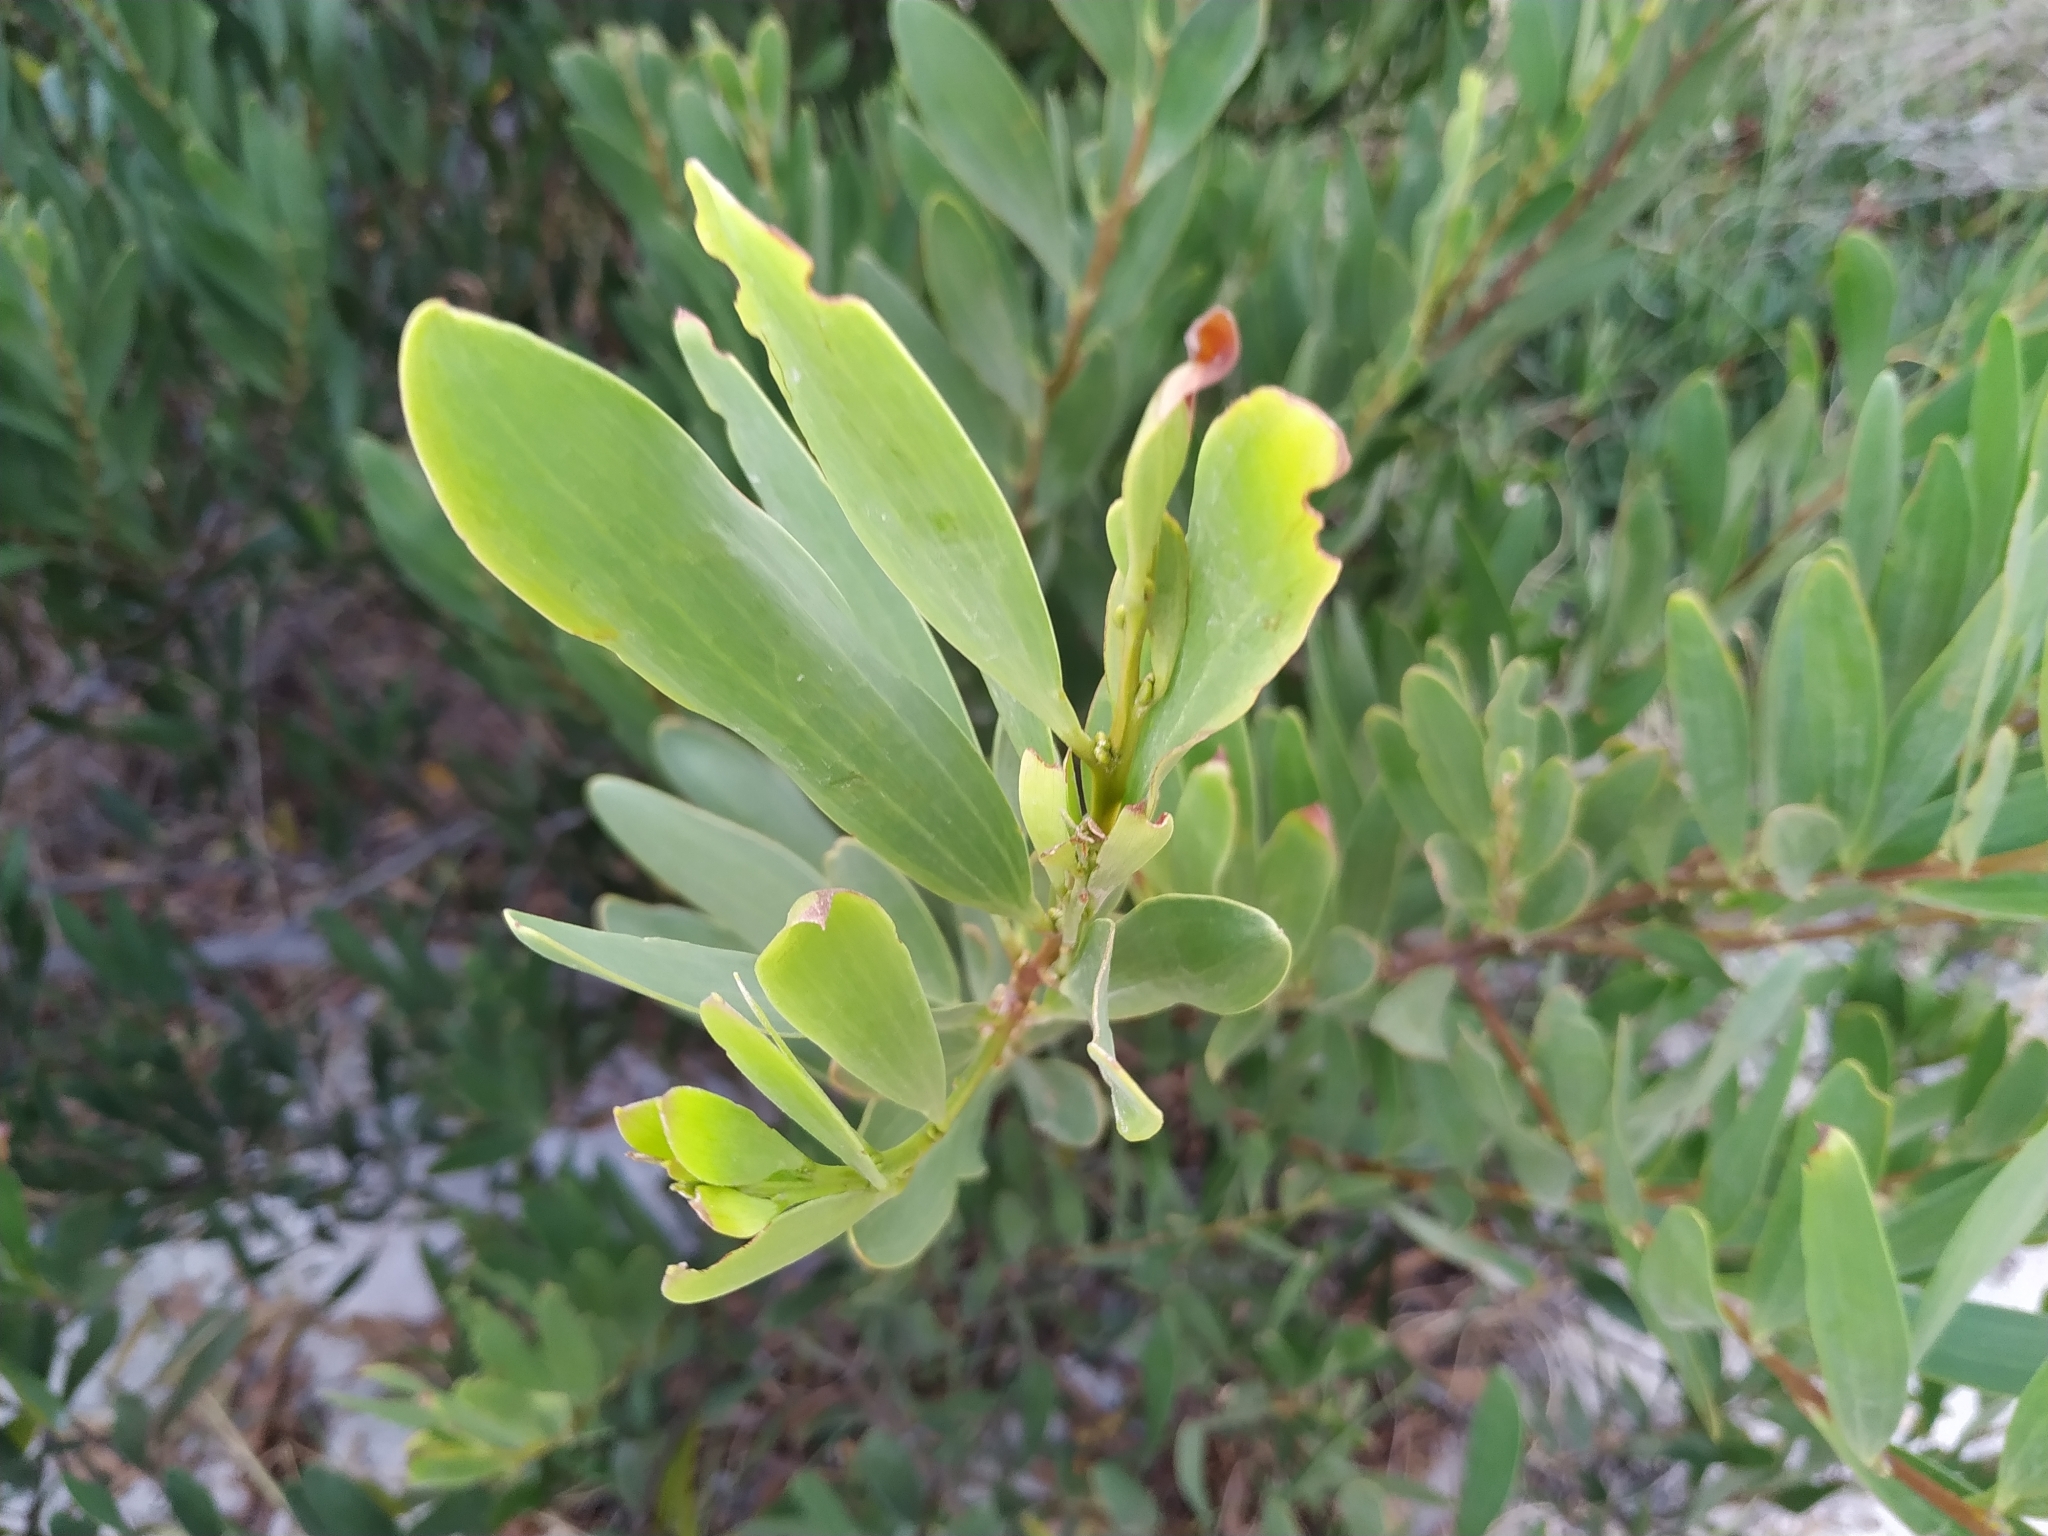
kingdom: Plantae
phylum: Tracheophyta
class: Magnoliopsida
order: Fabales
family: Fabaceae
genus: Acacia
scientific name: Acacia longifolia
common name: Sydney golden wattle
